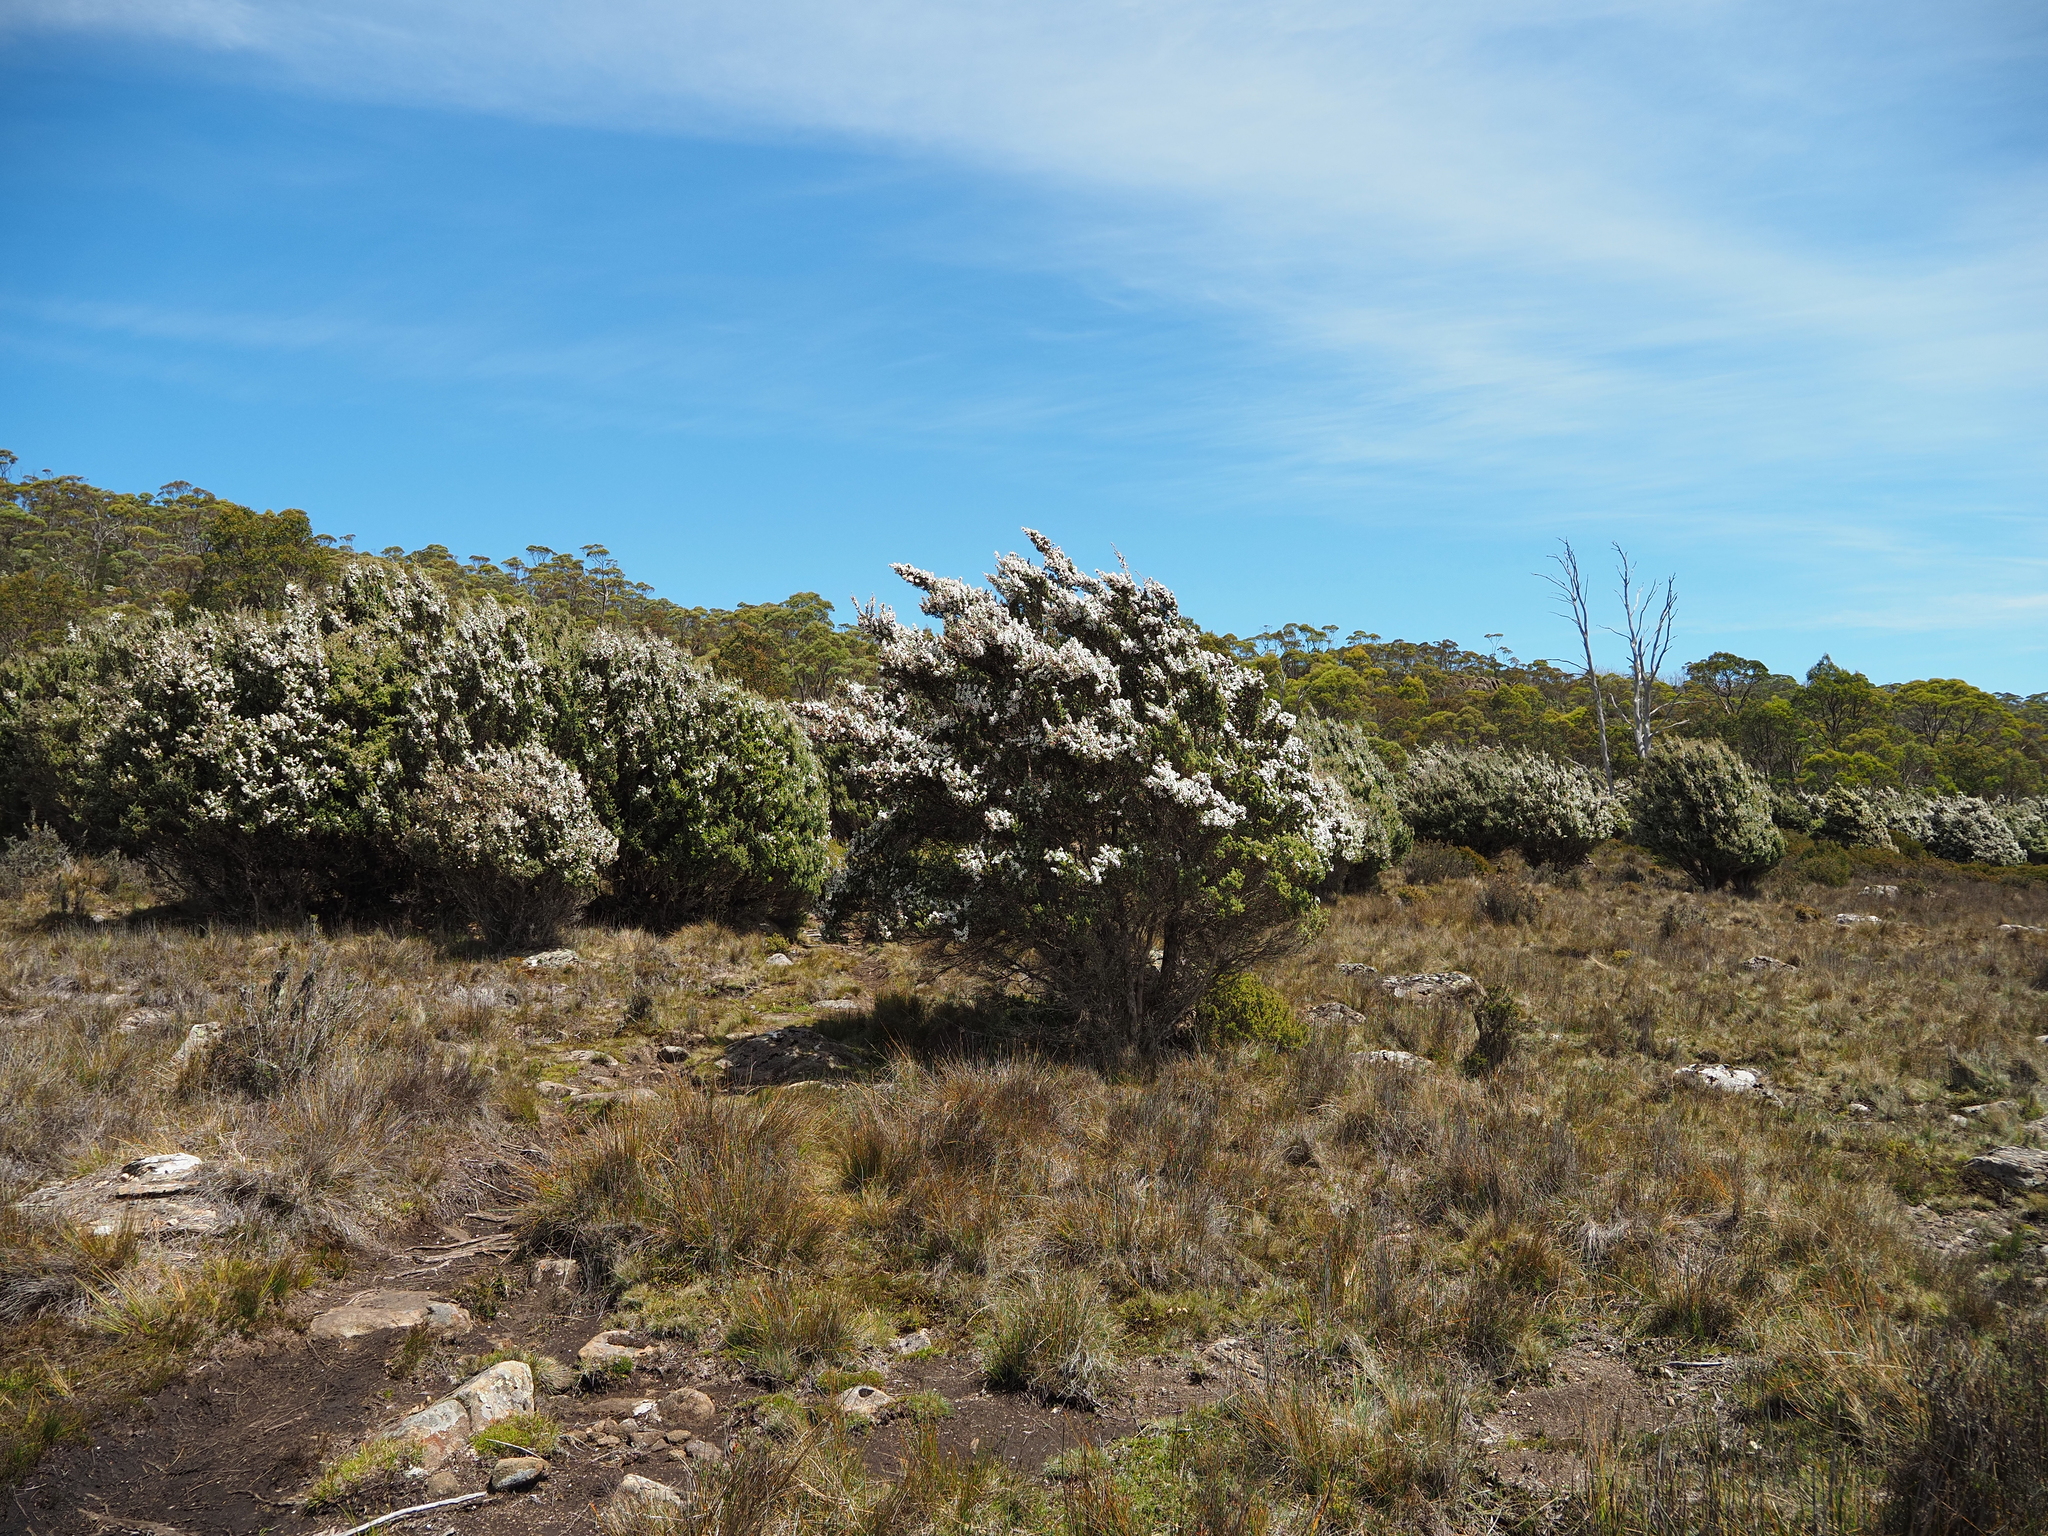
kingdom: Plantae
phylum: Tracheophyta
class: Magnoliopsida
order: Myrtales
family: Myrtaceae
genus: Leptospermum
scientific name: Leptospermum lanigerum
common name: Woolly tea-tree
